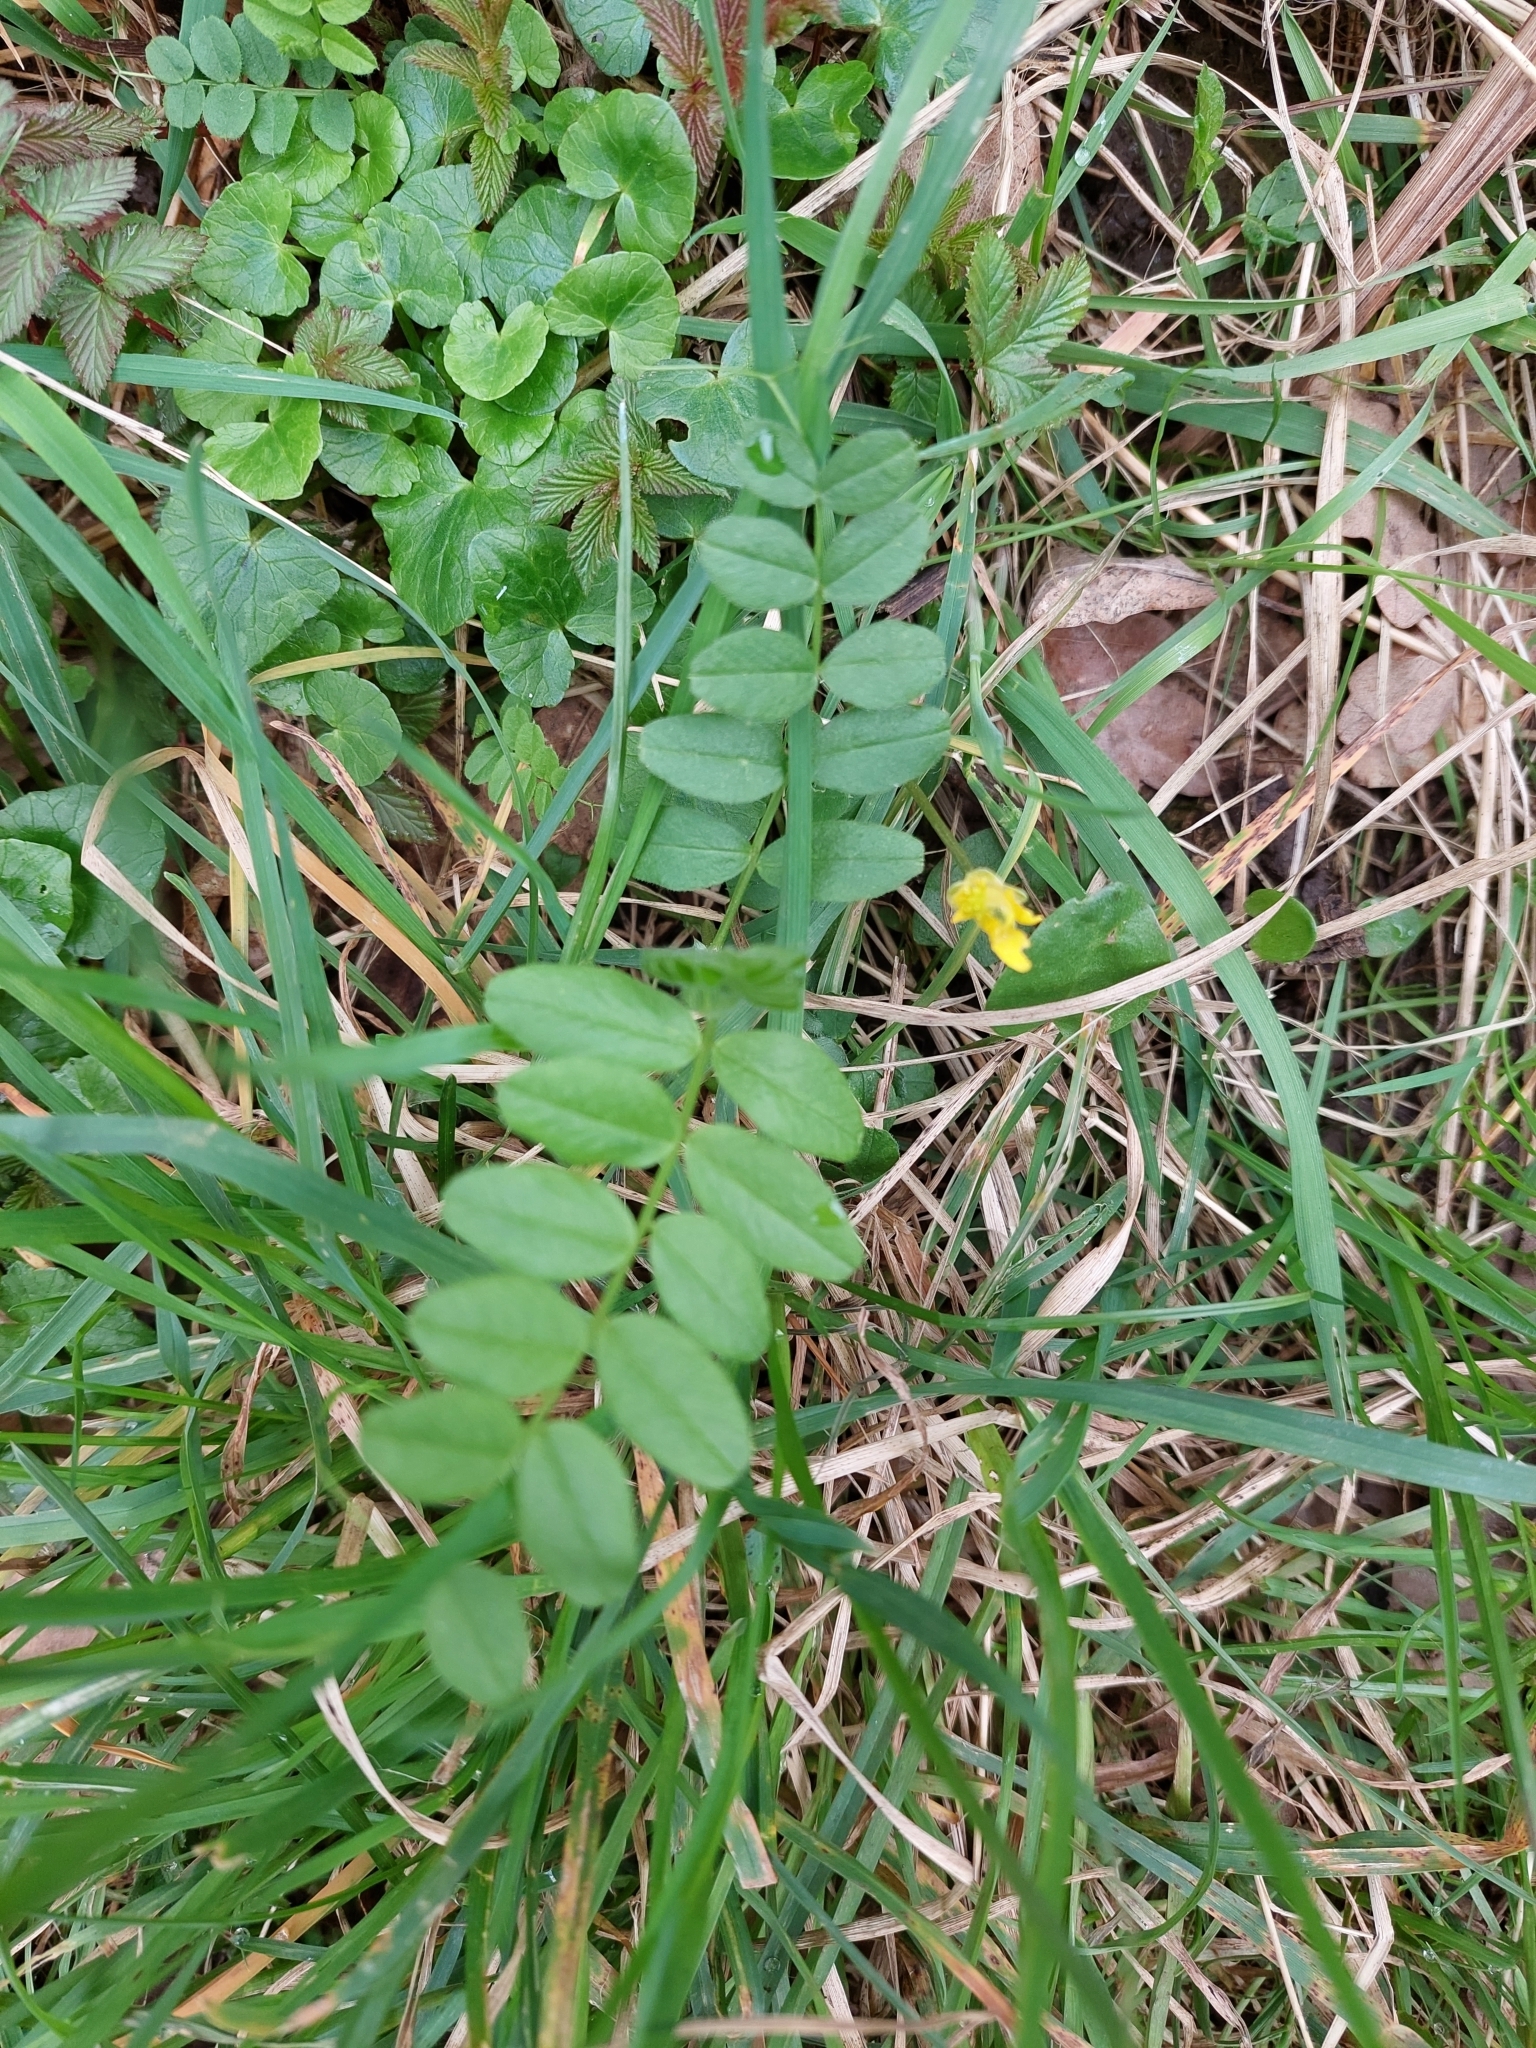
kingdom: Plantae
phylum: Tracheophyta
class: Magnoliopsida
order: Fabales
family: Fabaceae
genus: Vicia
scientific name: Vicia sepium
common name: Bush vetch
